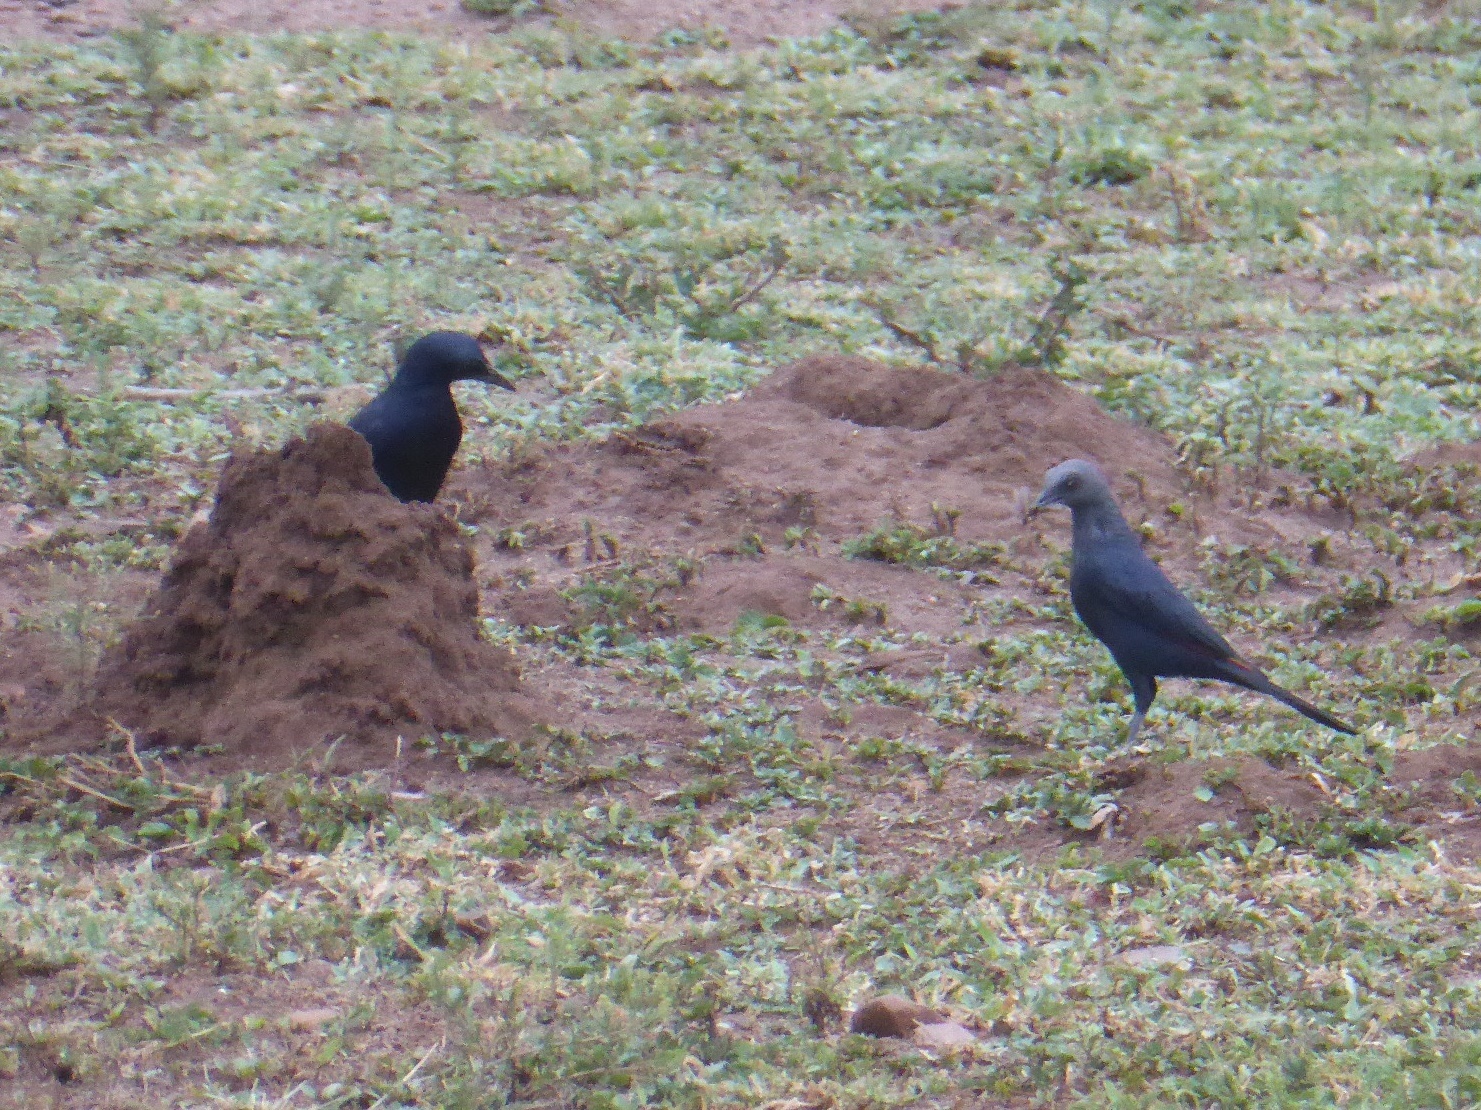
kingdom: Animalia
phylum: Chordata
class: Aves
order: Passeriformes
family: Sturnidae
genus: Onychognathus
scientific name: Onychognathus morio
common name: Red-winged starling
